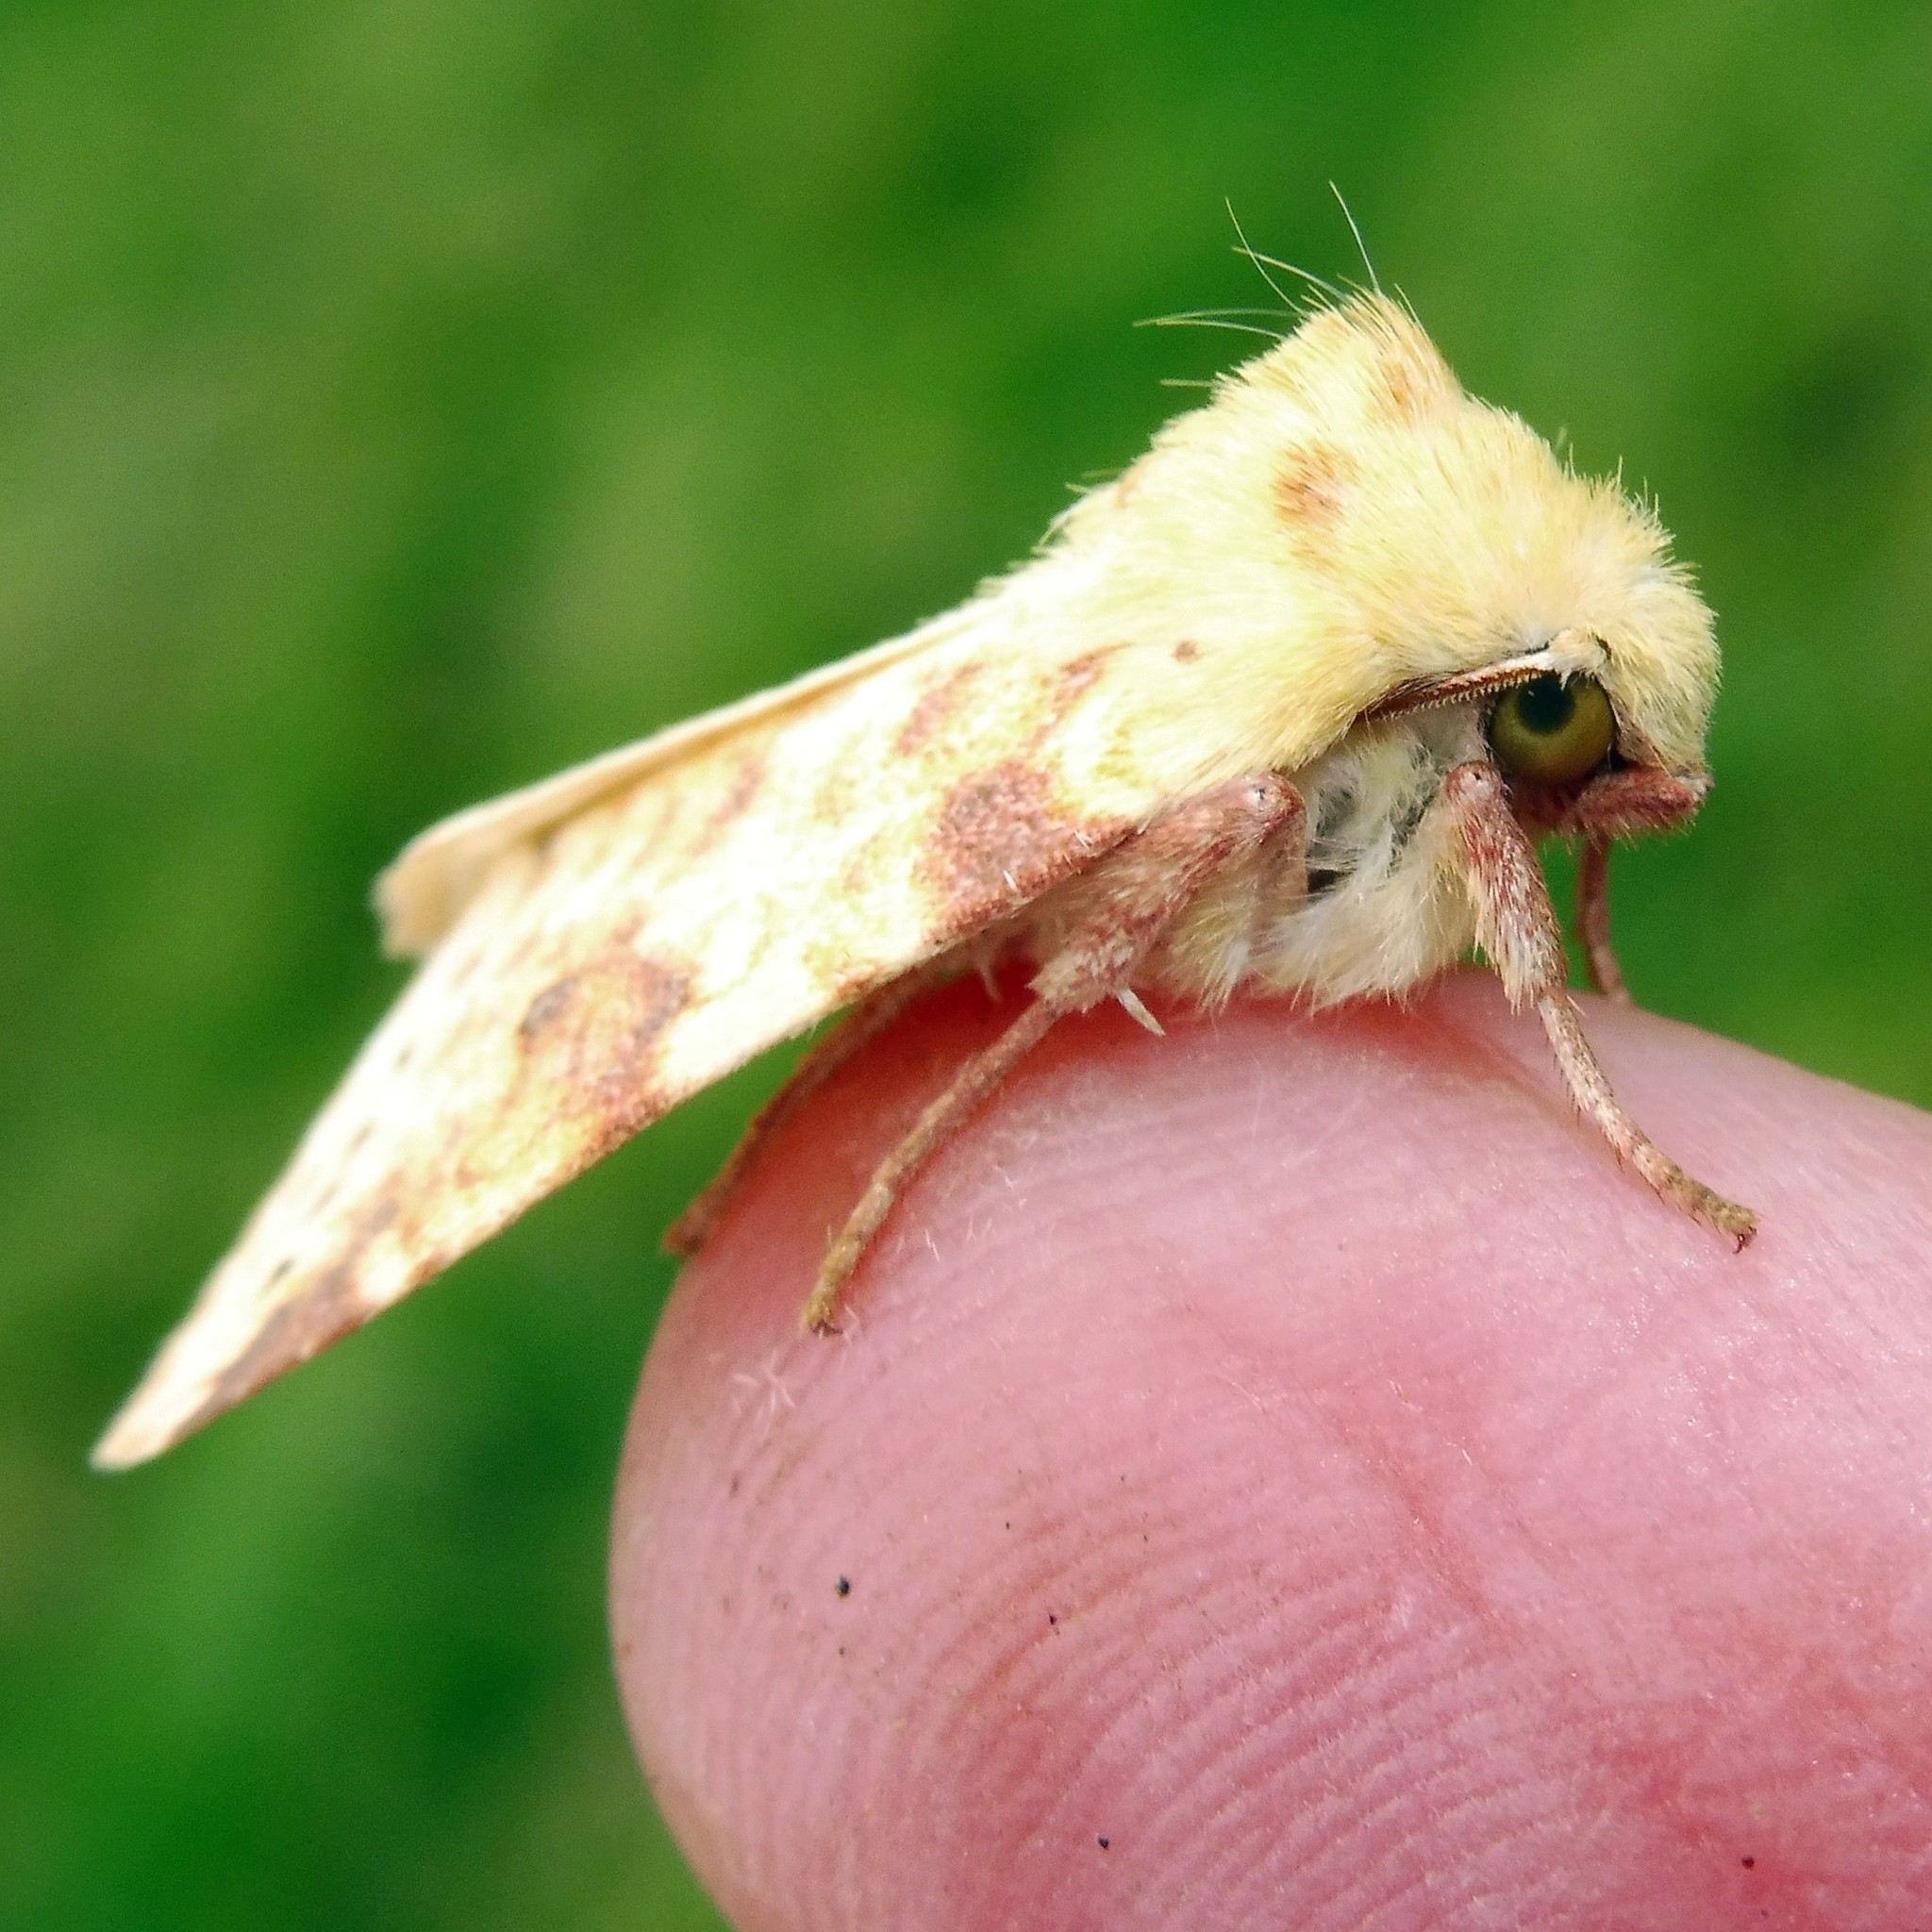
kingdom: Animalia
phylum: Arthropoda
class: Insecta
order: Lepidoptera
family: Noctuidae
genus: Xanthia
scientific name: Xanthia icteritia
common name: The sallow
